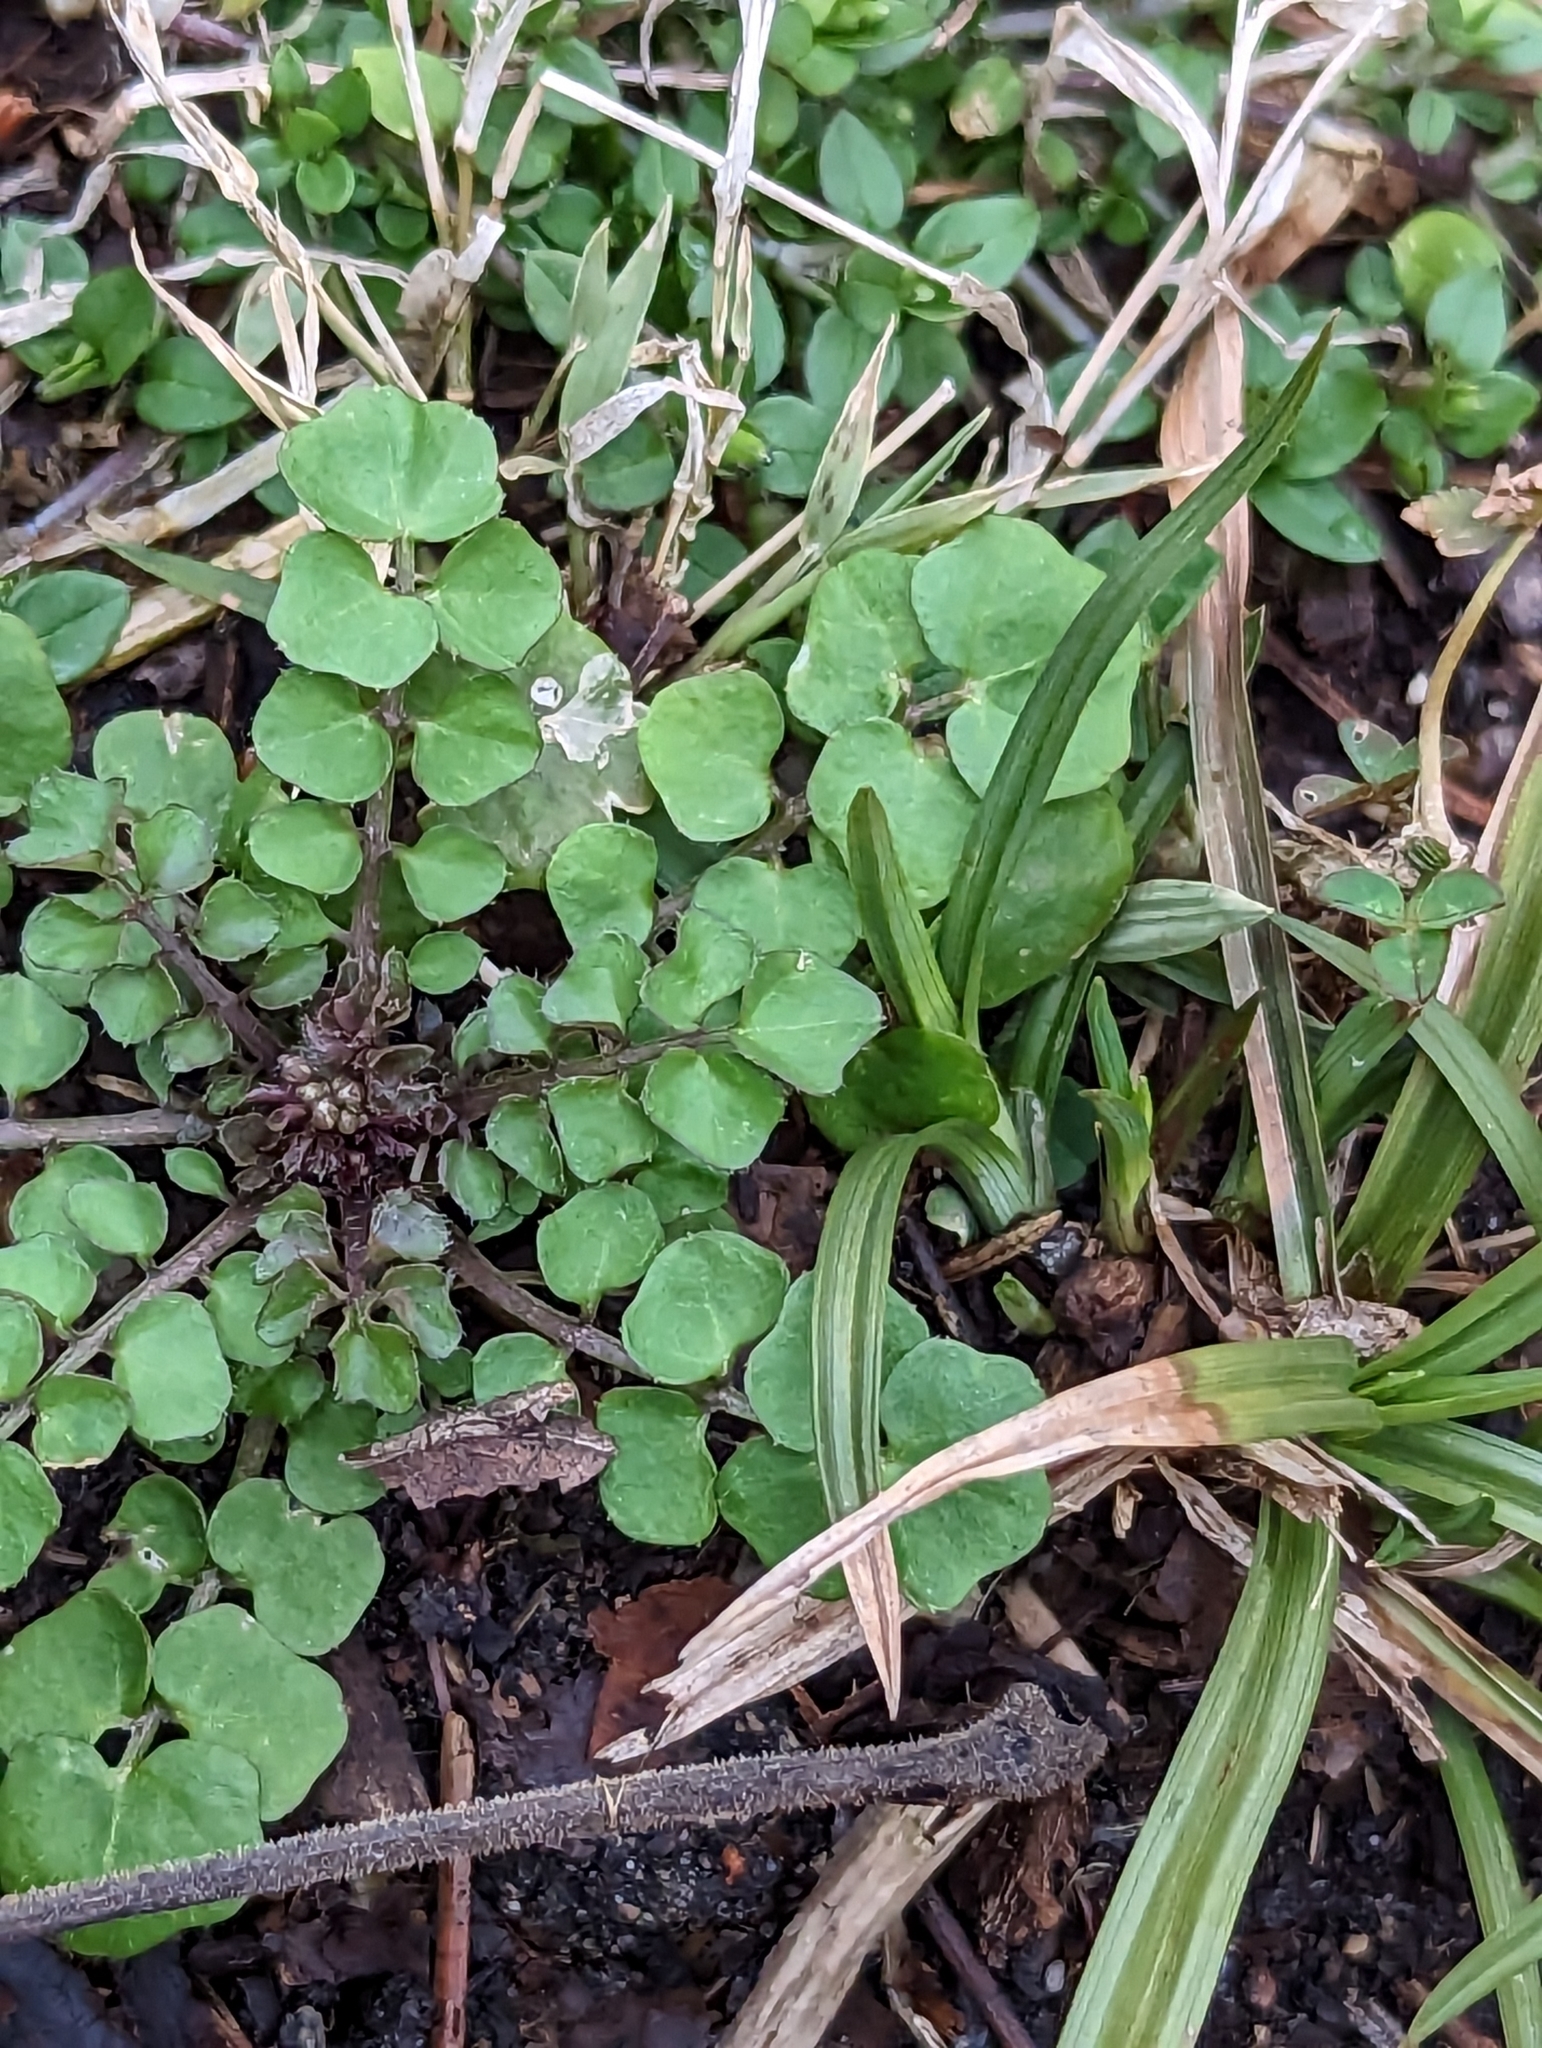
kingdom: Plantae
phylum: Tracheophyta
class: Magnoliopsida
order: Brassicales
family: Brassicaceae
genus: Cardamine
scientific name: Cardamine hirsuta
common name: Hairy bittercress
